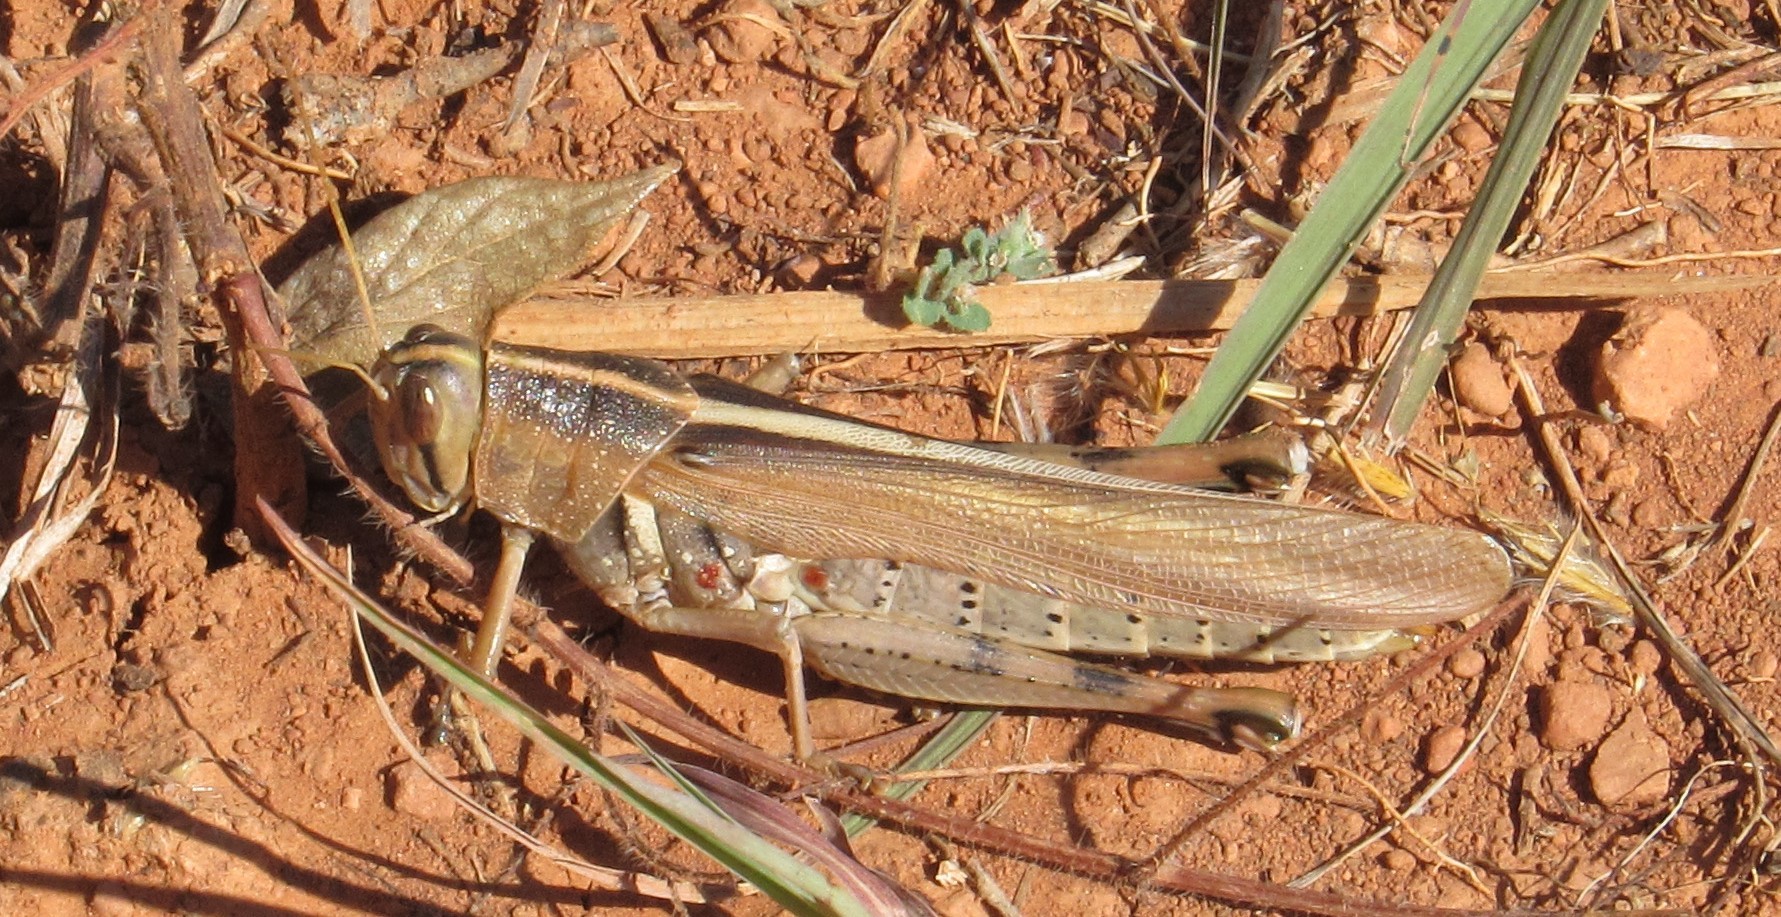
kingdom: Animalia
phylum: Arthropoda
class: Insecta
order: Orthoptera
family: Acrididae
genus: Schistocerca
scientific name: Schistocerca lineata
